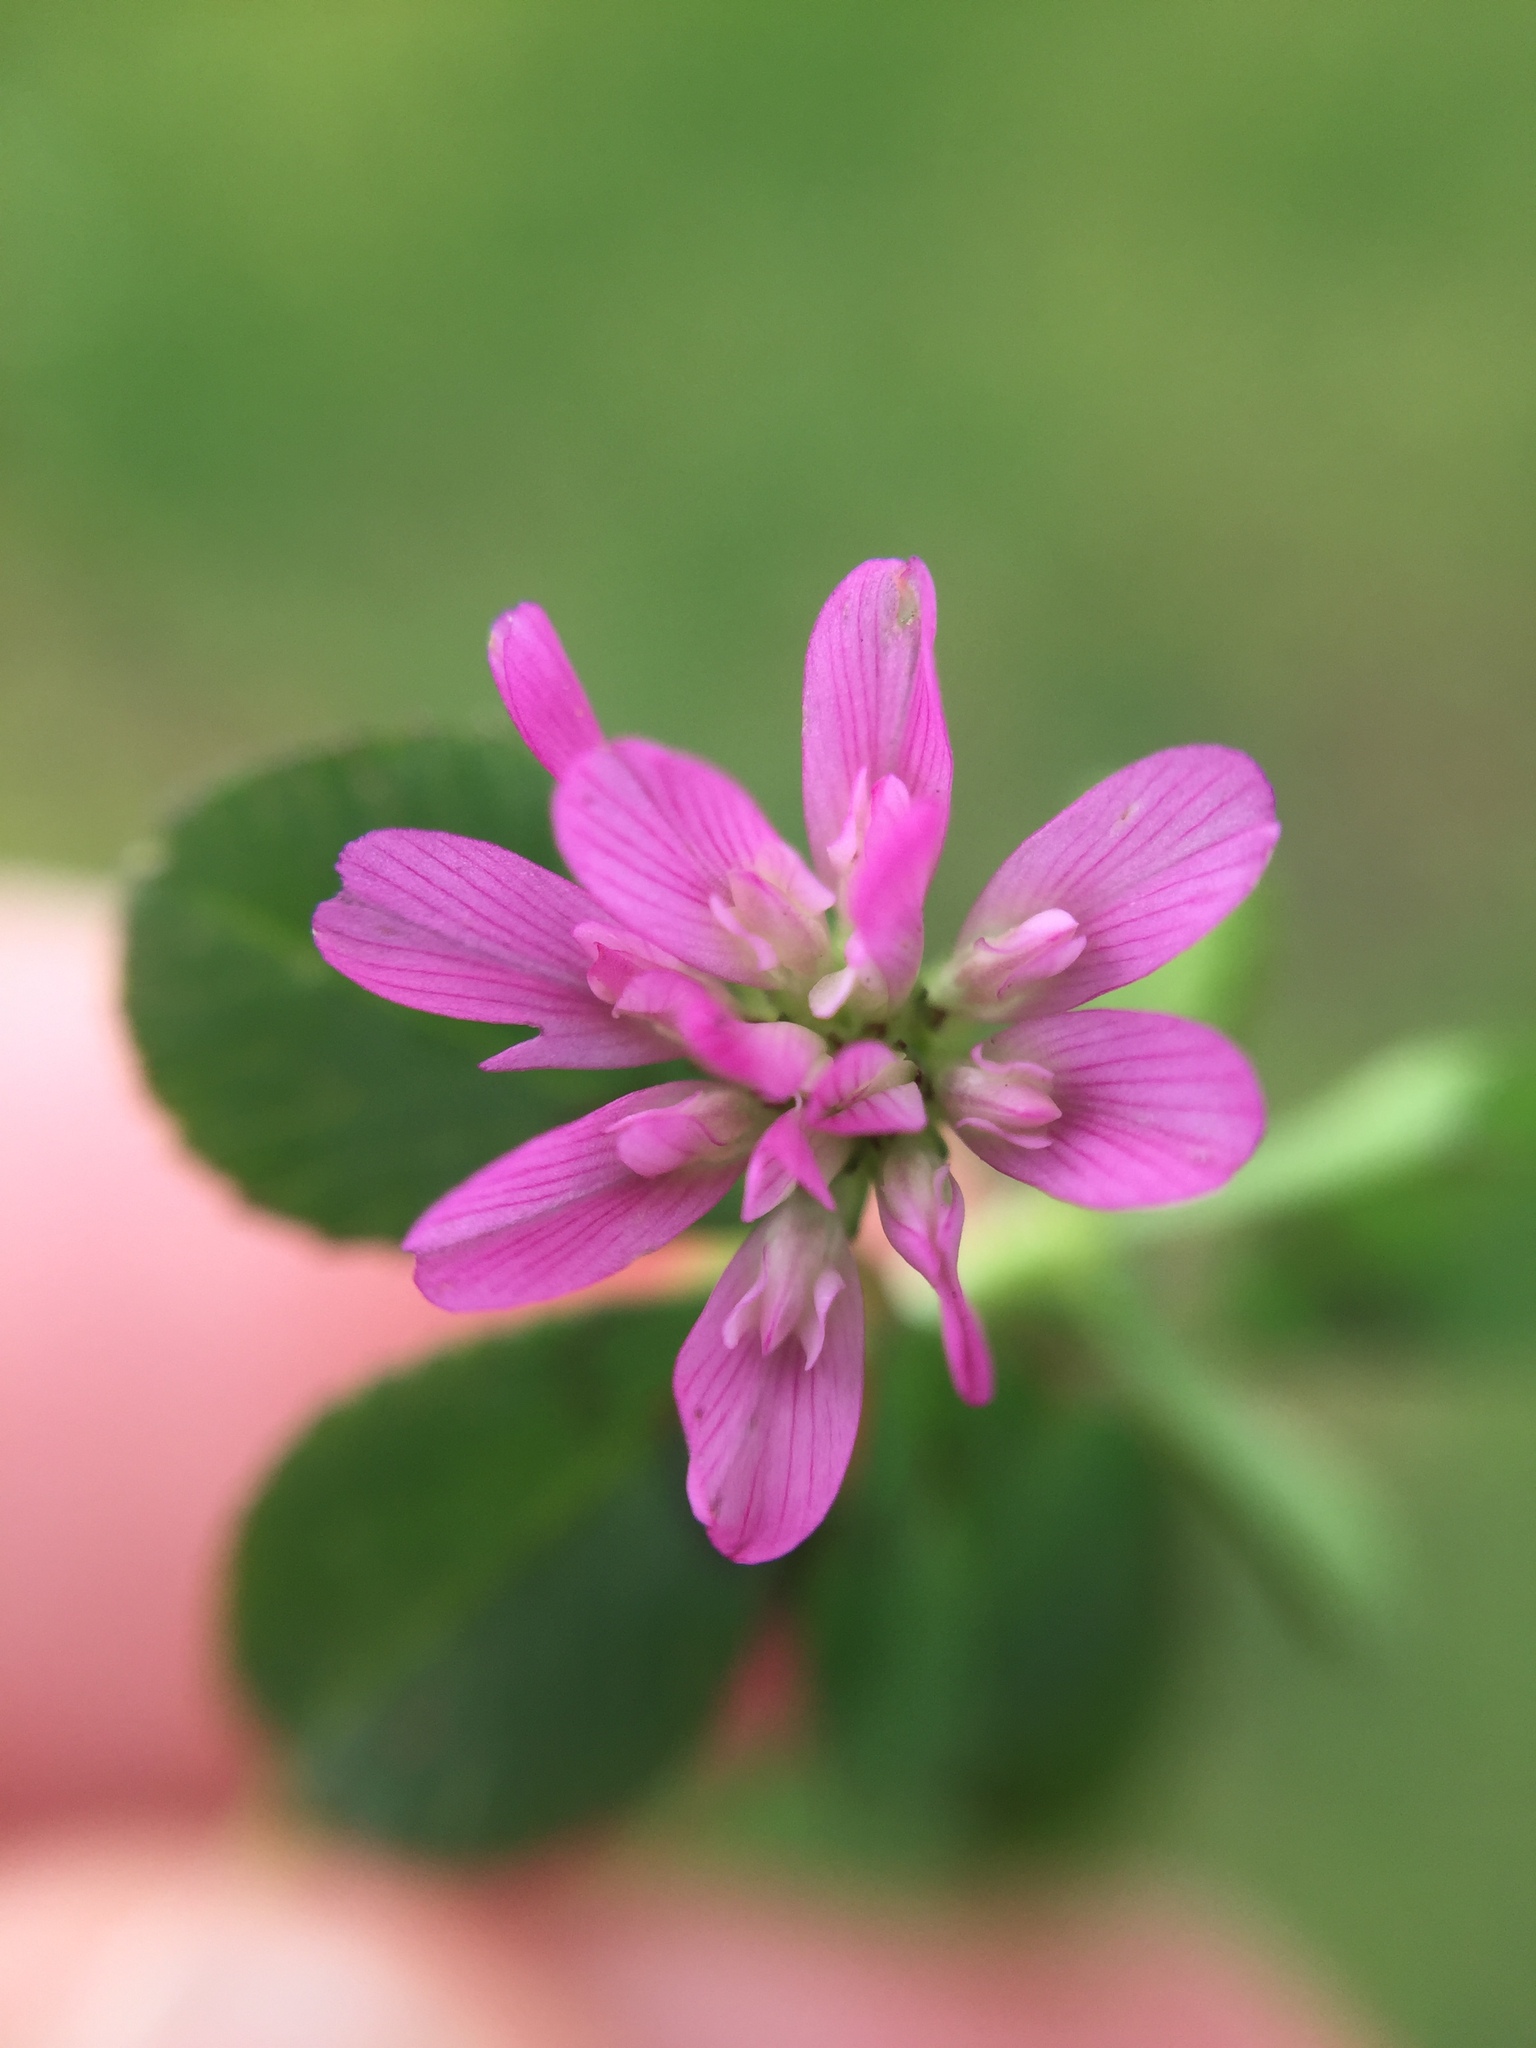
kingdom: Plantae
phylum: Tracheophyta
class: Magnoliopsida
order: Fabales
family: Fabaceae
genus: Trifolium
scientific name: Trifolium tomentosum
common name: Woolly clover
